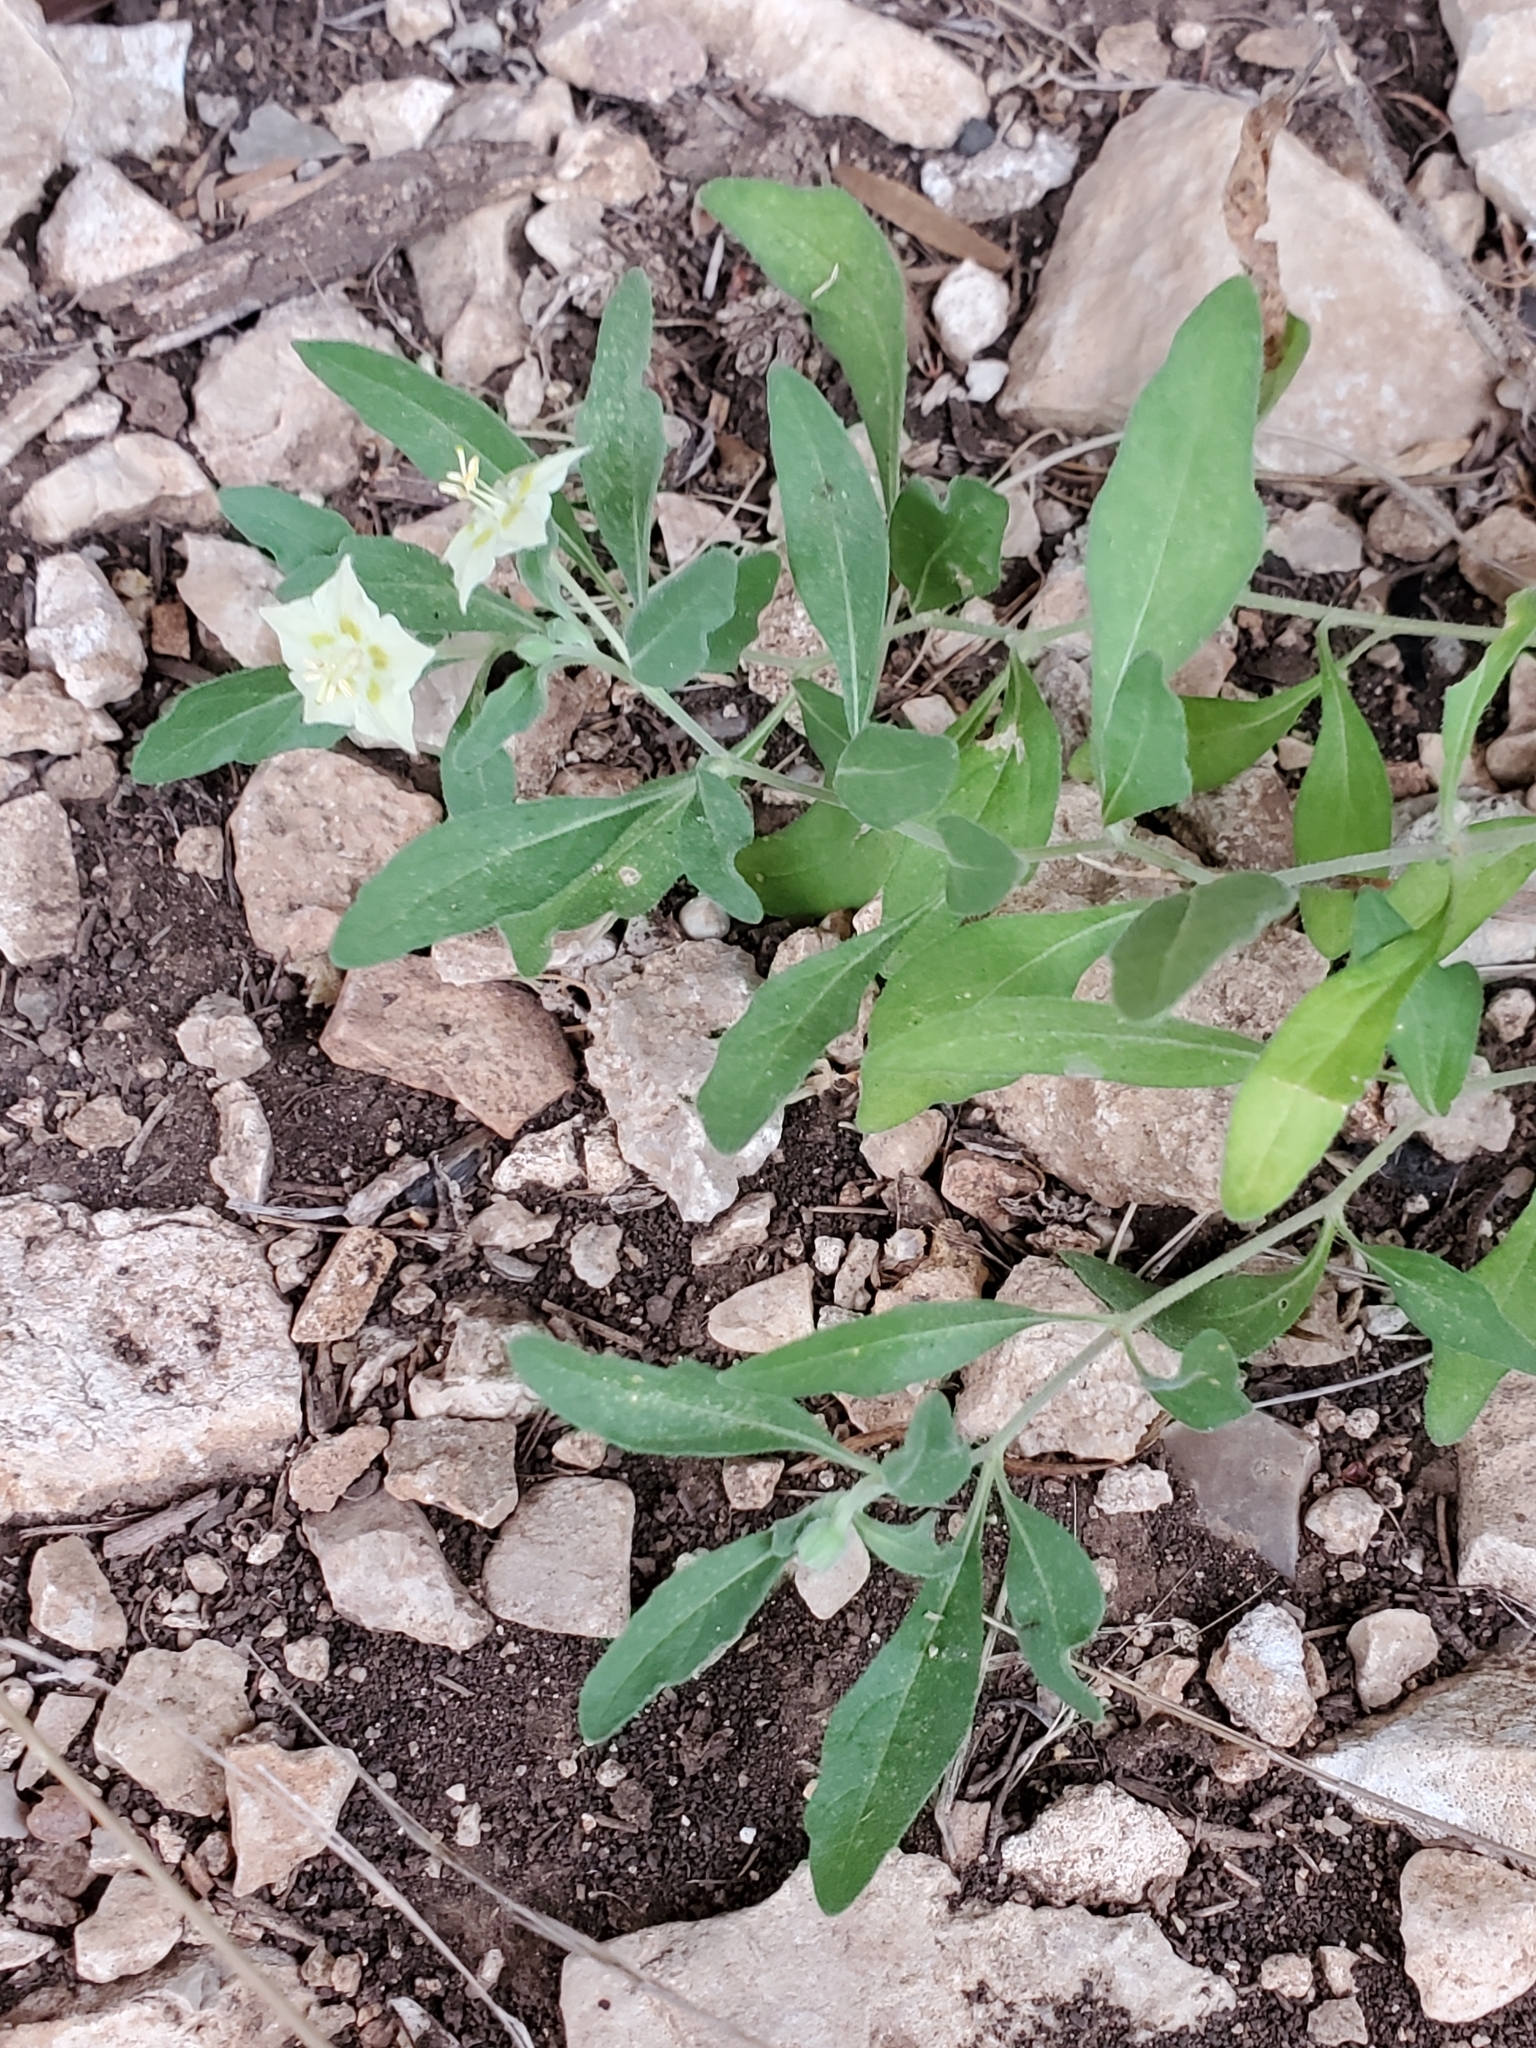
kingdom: Plantae
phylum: Tracheophyta
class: Magnoliopsida
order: Solanales
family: Solanaceae
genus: Chamaesaracha
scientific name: Chamaesaracha edwardsiana
